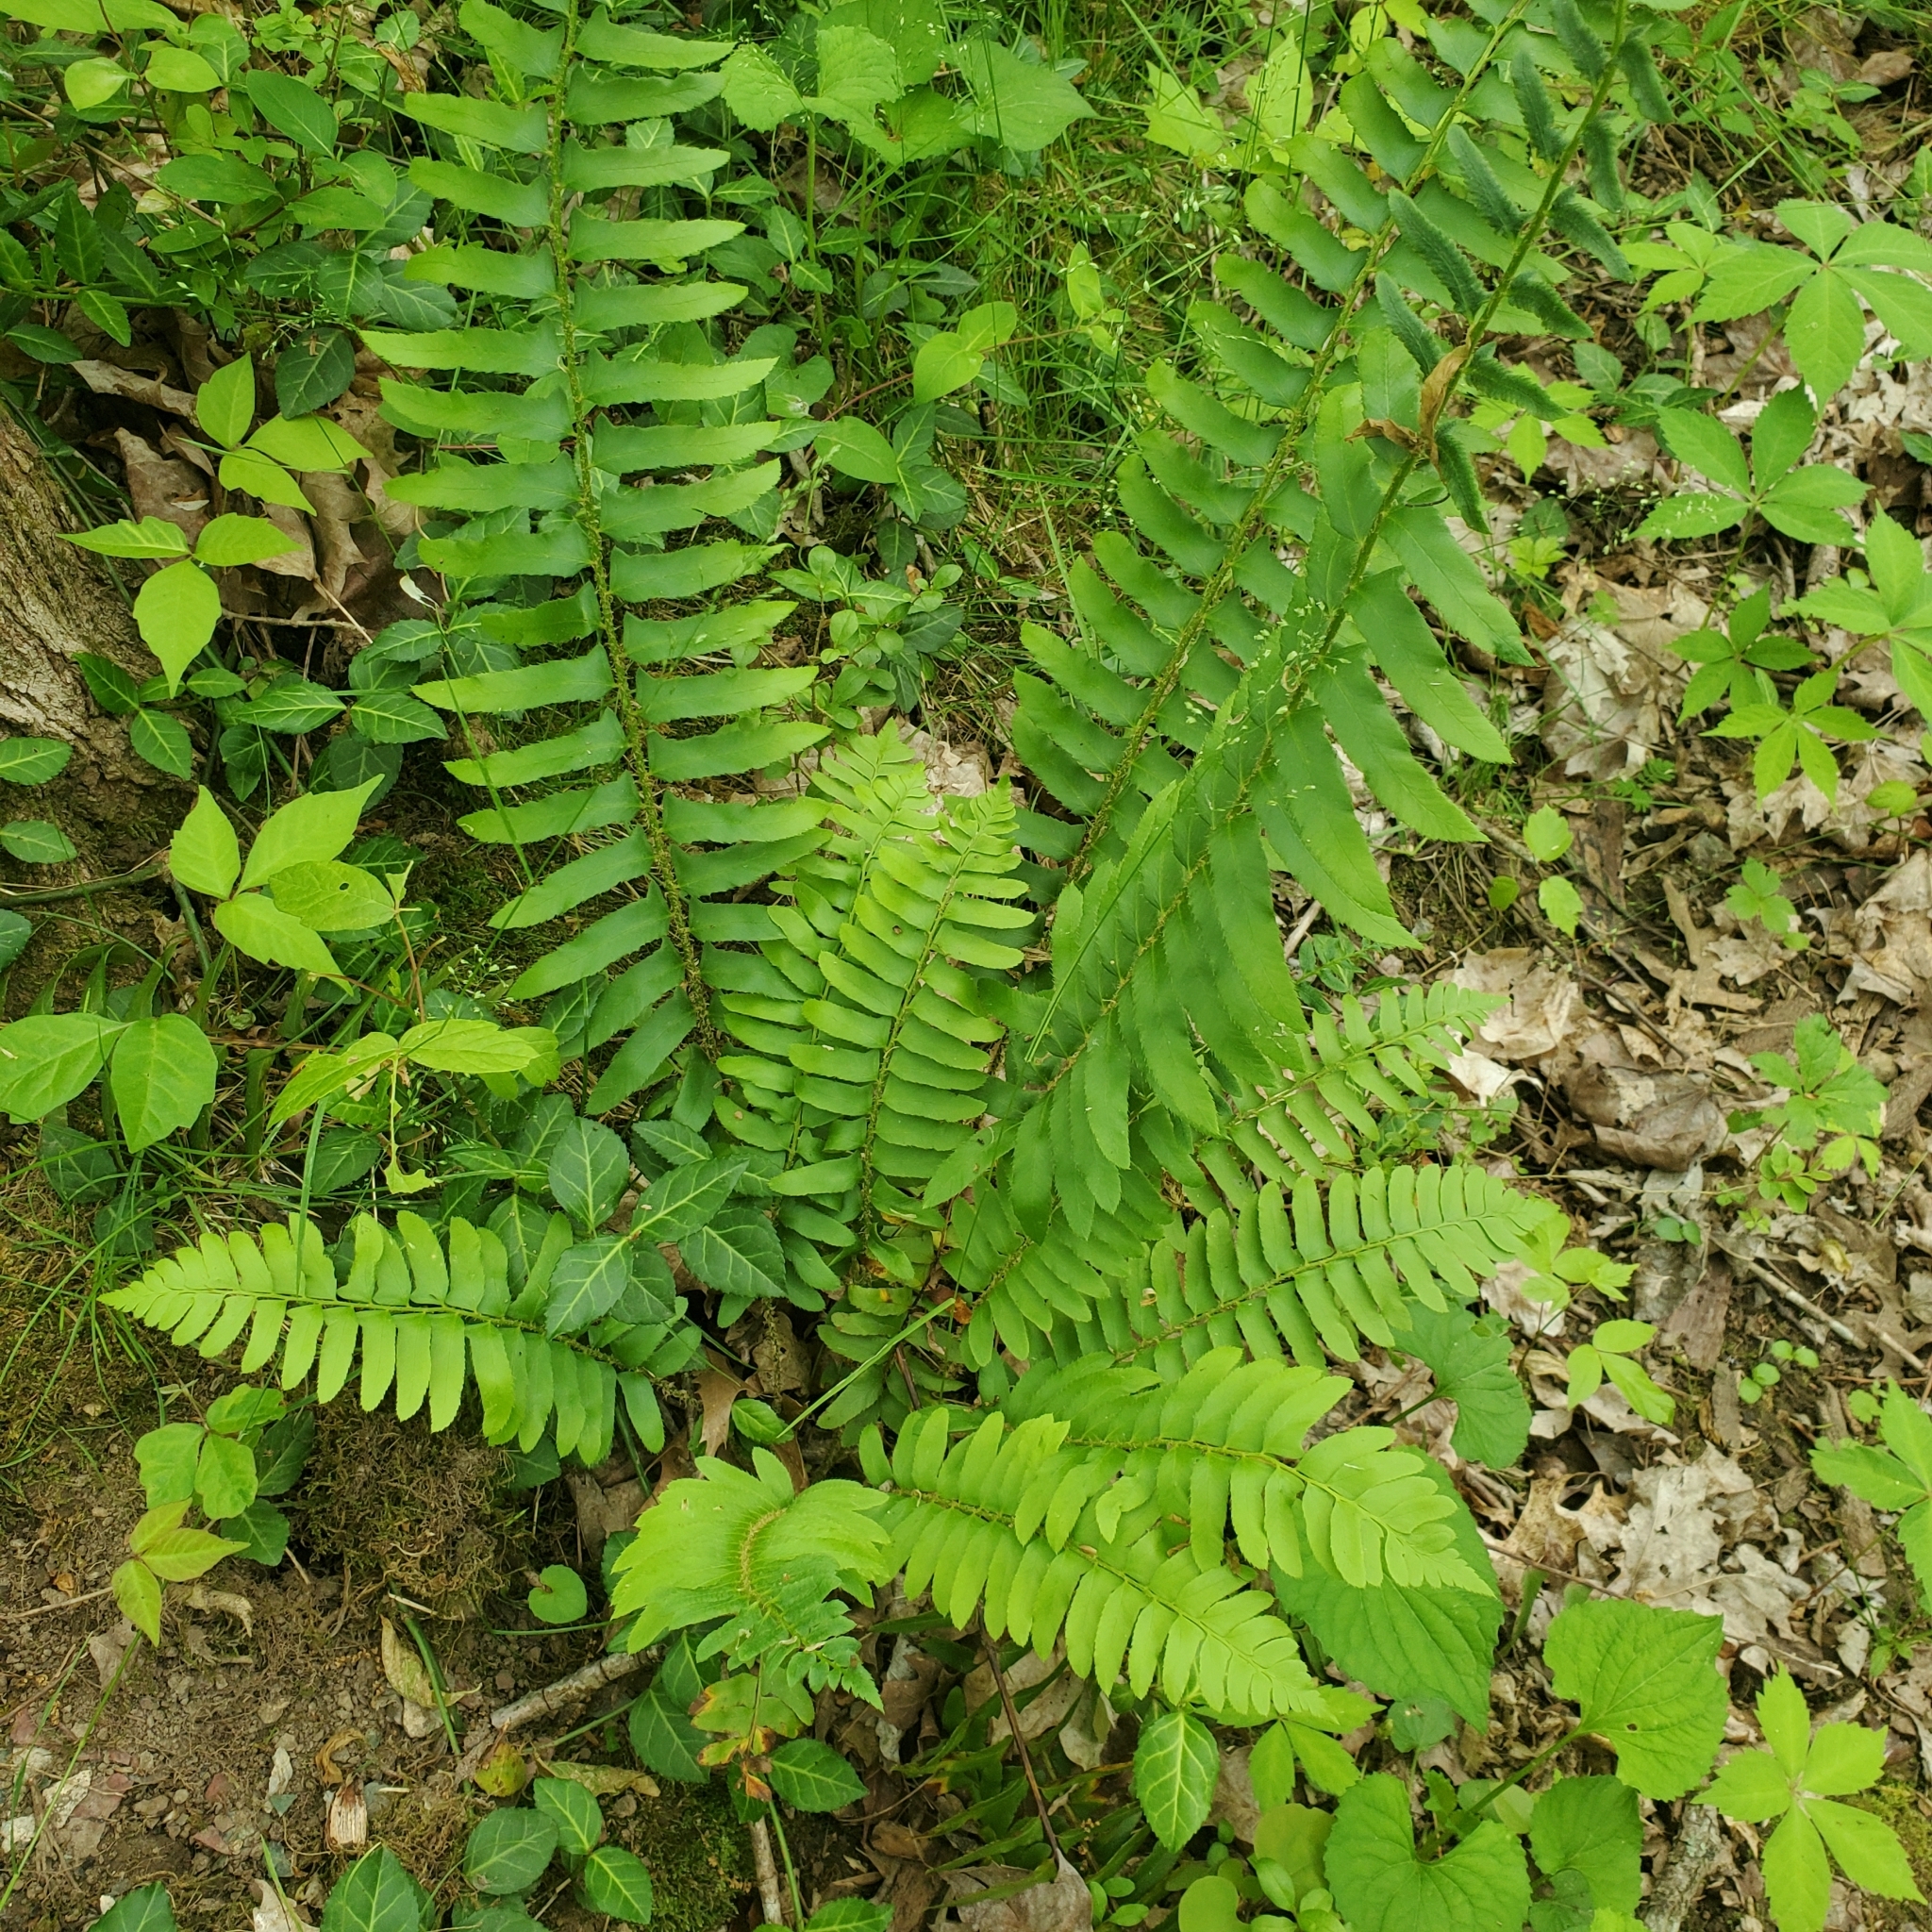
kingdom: Plantae
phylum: Tracheophyta
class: Polypodiopsida
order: Polypodiales
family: Dryopteridaceae
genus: Polystichum
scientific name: Polystichum acrostichoides
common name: Christmas fern
